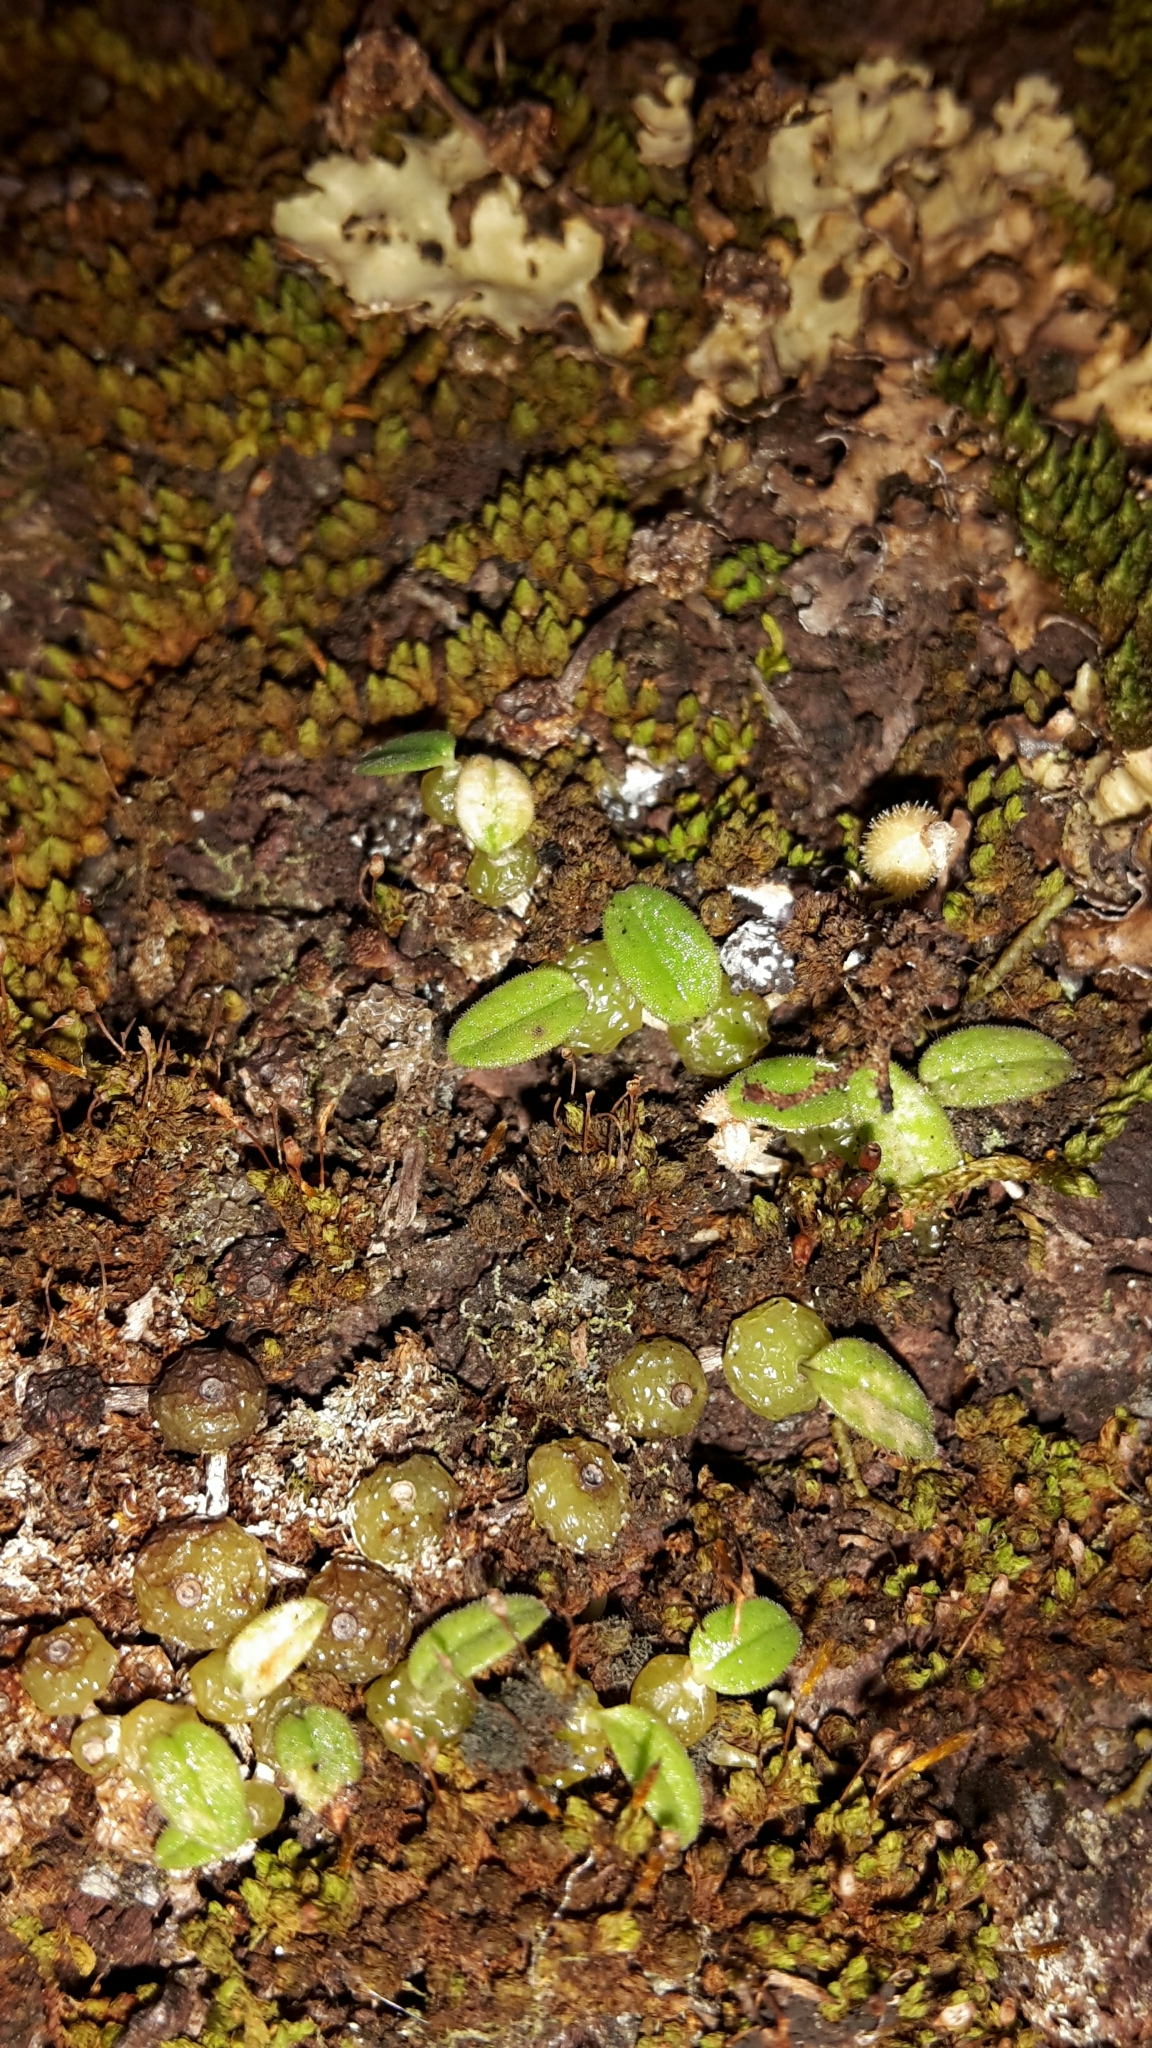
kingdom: Plantae
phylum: Tracheophyta
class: Liliopsida
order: Asparagales
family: Orchidaceae
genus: Bulbophyllum
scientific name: Bulbophyllum pygmaeum
